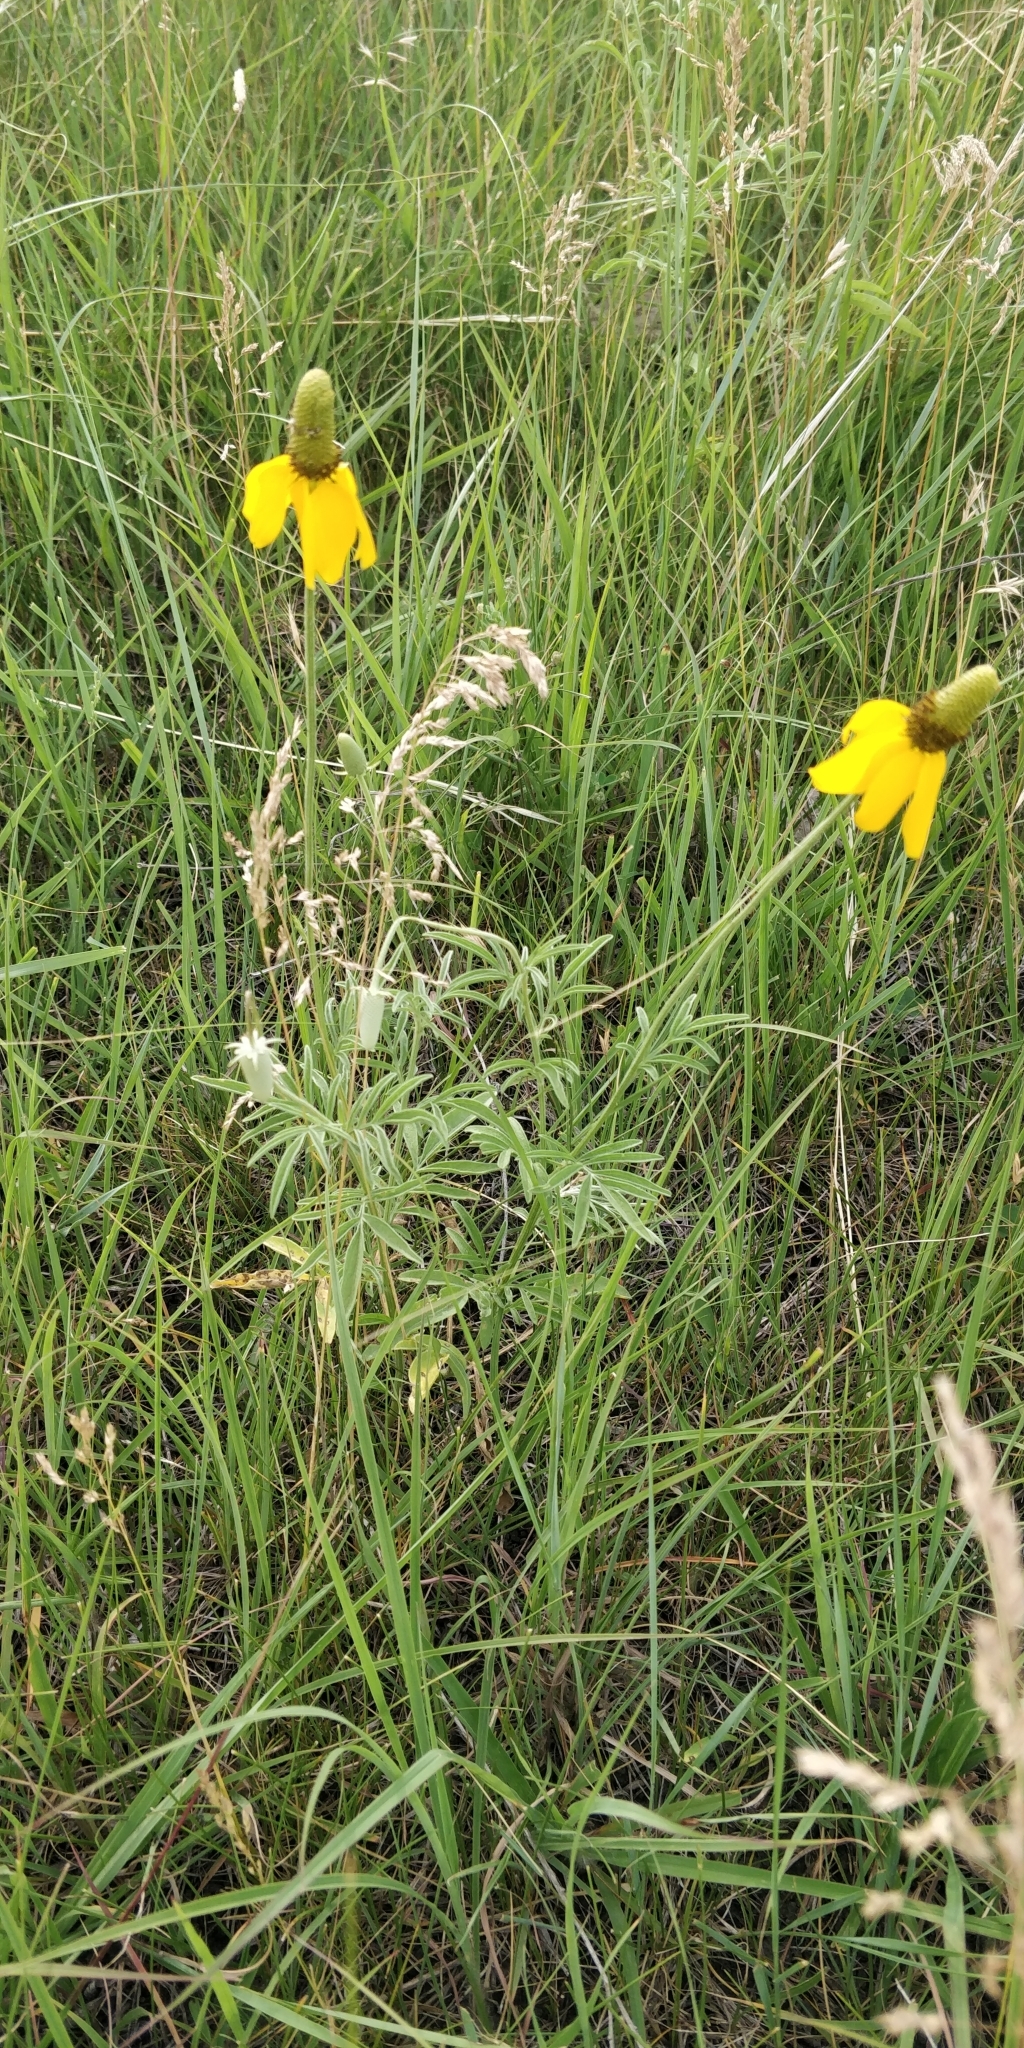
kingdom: Plantae
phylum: Tracheophyta
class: Magnoliopsida
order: Asterales
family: Asteraceae
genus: Ratibida
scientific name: Ratibida columnifera
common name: Prairie coneflower
